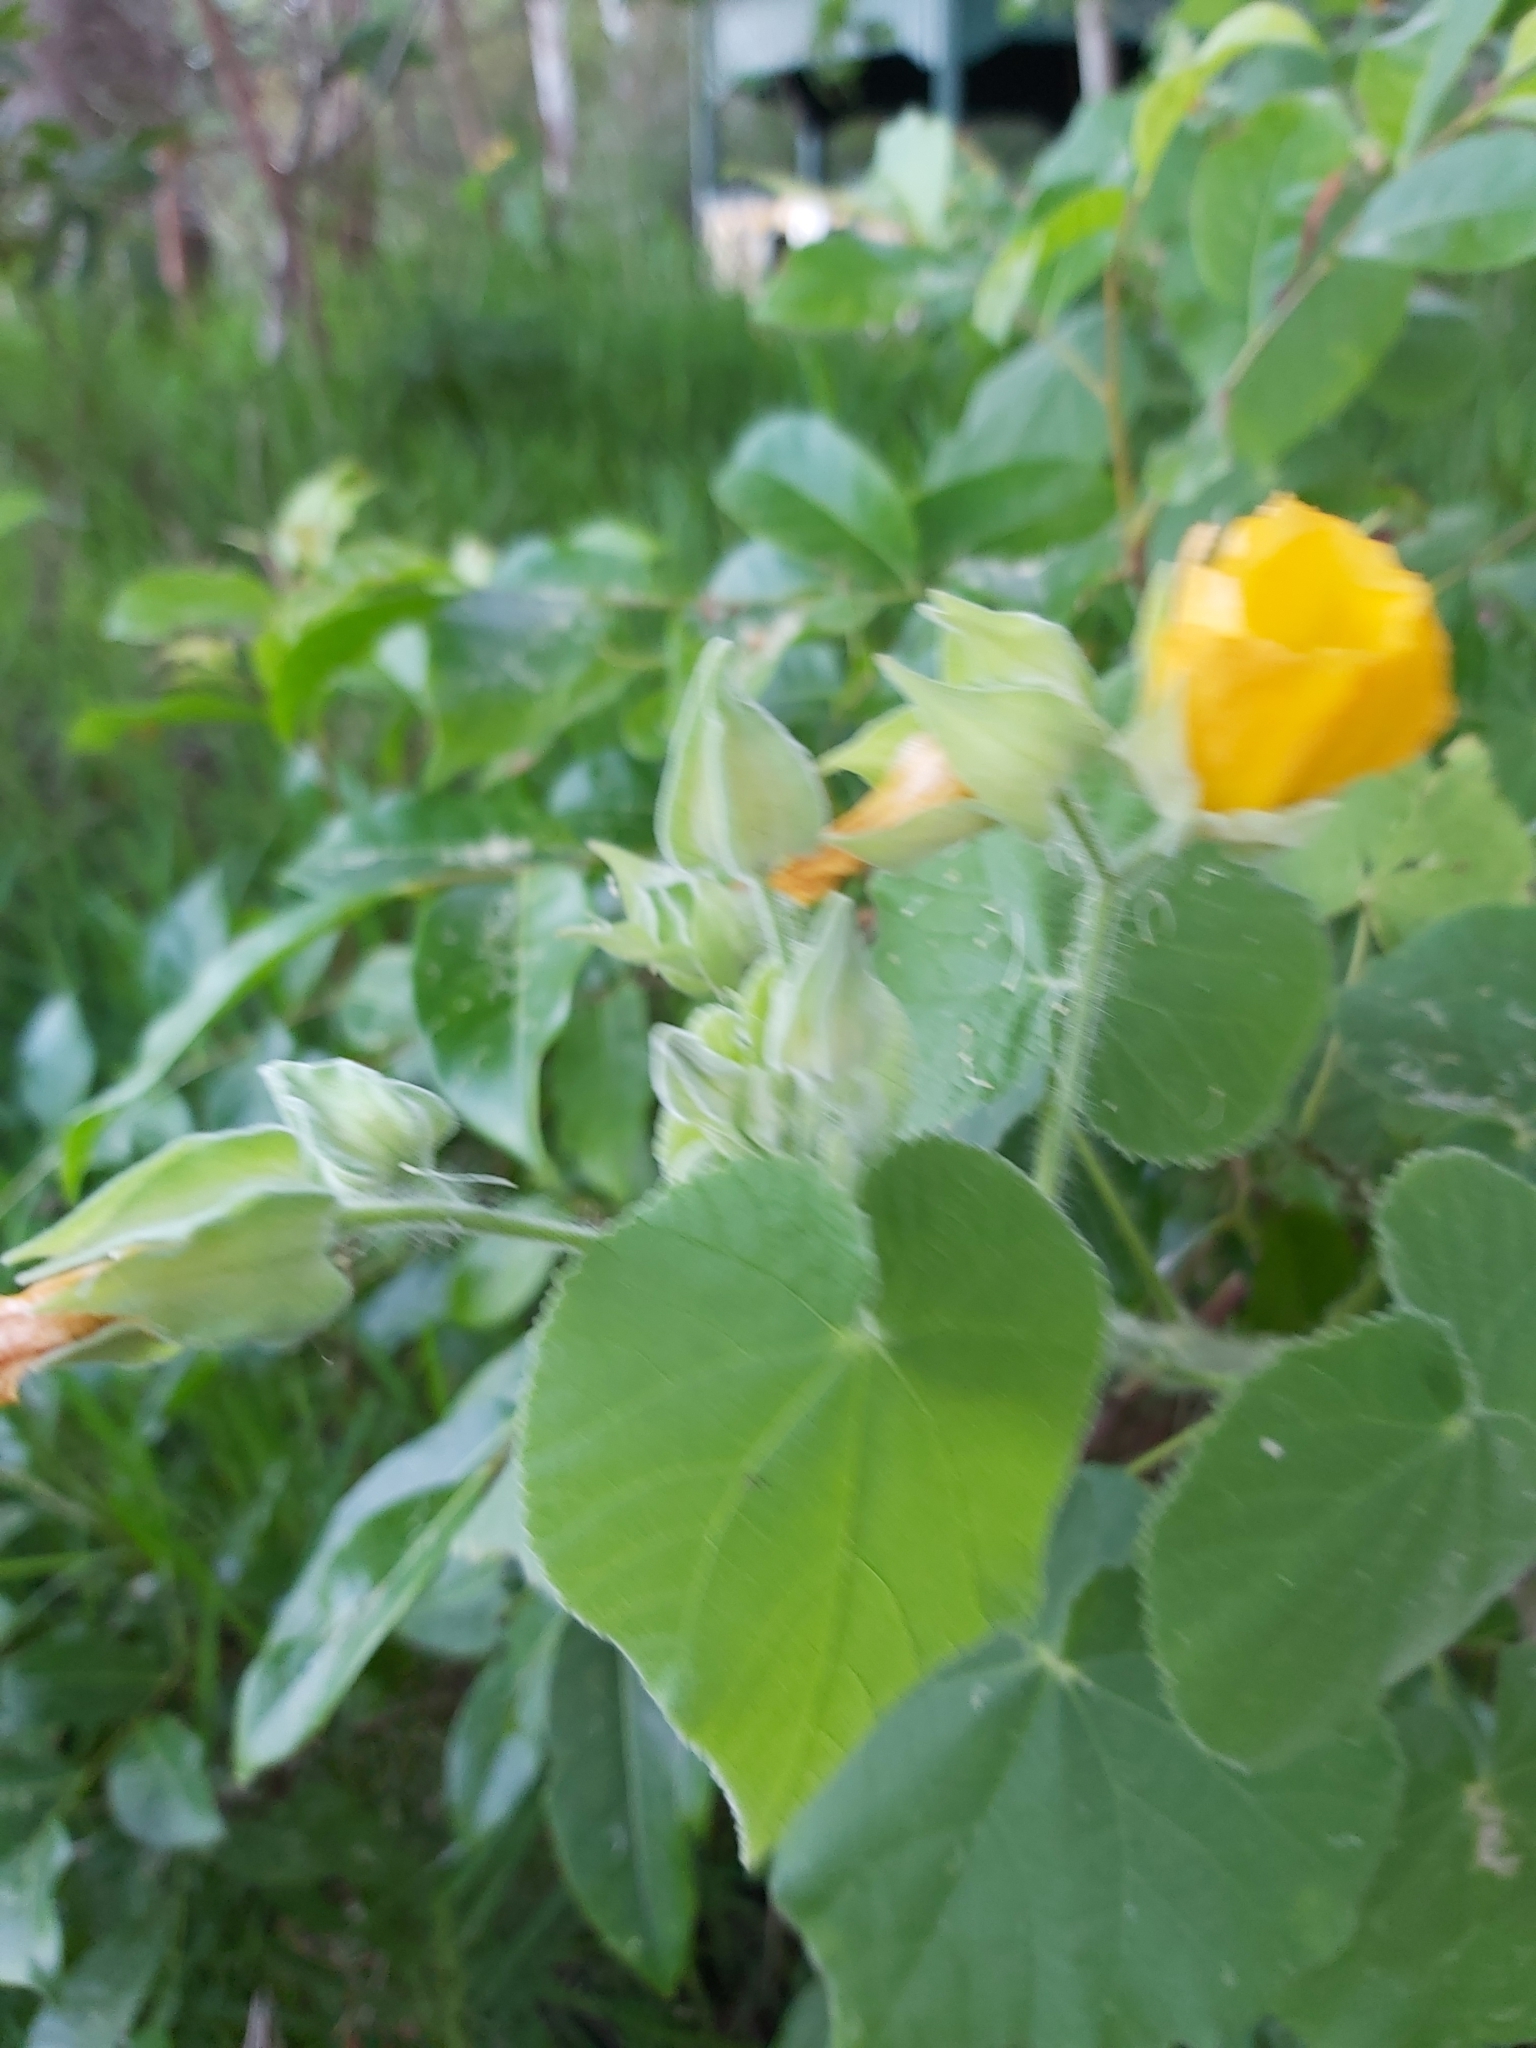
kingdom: Plantae
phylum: Tracheophyta
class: Magnoliopsida
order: Malvales
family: Malvaceae
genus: Abutilon
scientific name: Abutilon grandifolium
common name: Hairy abutilon
